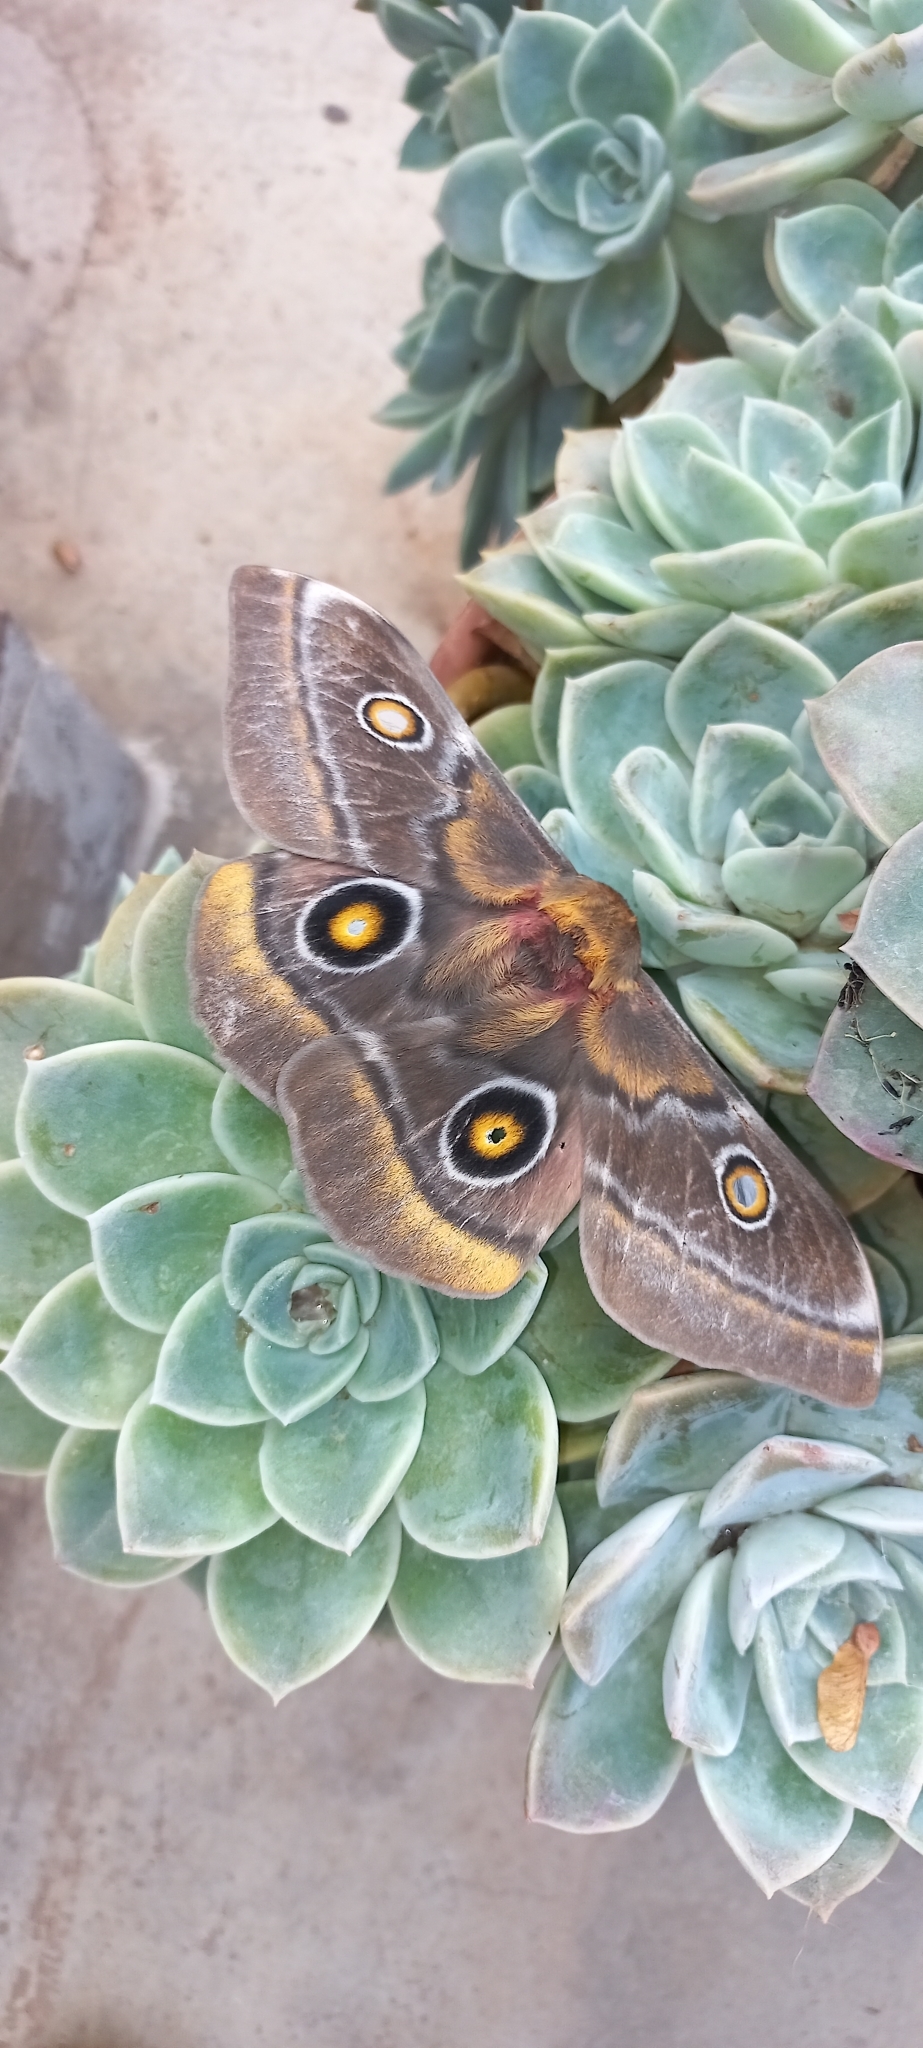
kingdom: Animalia
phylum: Arthropoda
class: Insecta
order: Lepidoptera
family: Saturniidae
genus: Nudaurelia
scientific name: Nudaurelia cytherea
